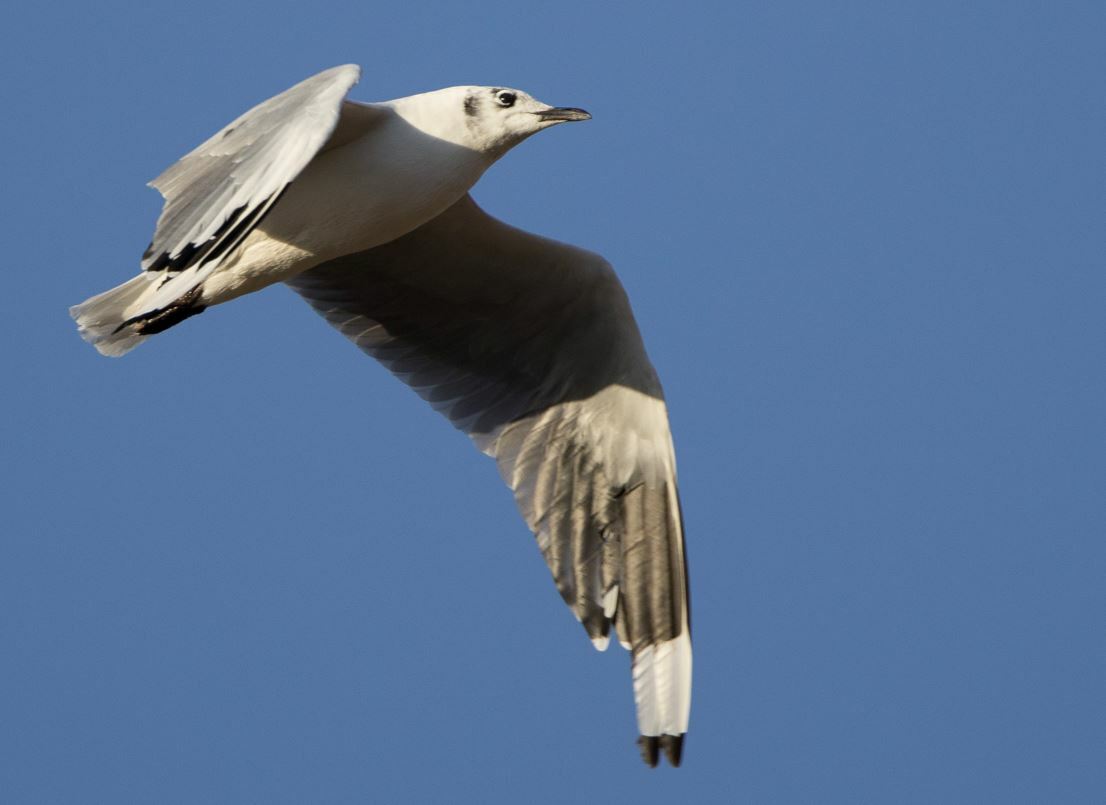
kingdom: Animalia
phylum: Chordata
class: Aves
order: Charadriiformes
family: Laridae
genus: Chroicocephalus
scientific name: Chroicocephalus serranus
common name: Andean gull
